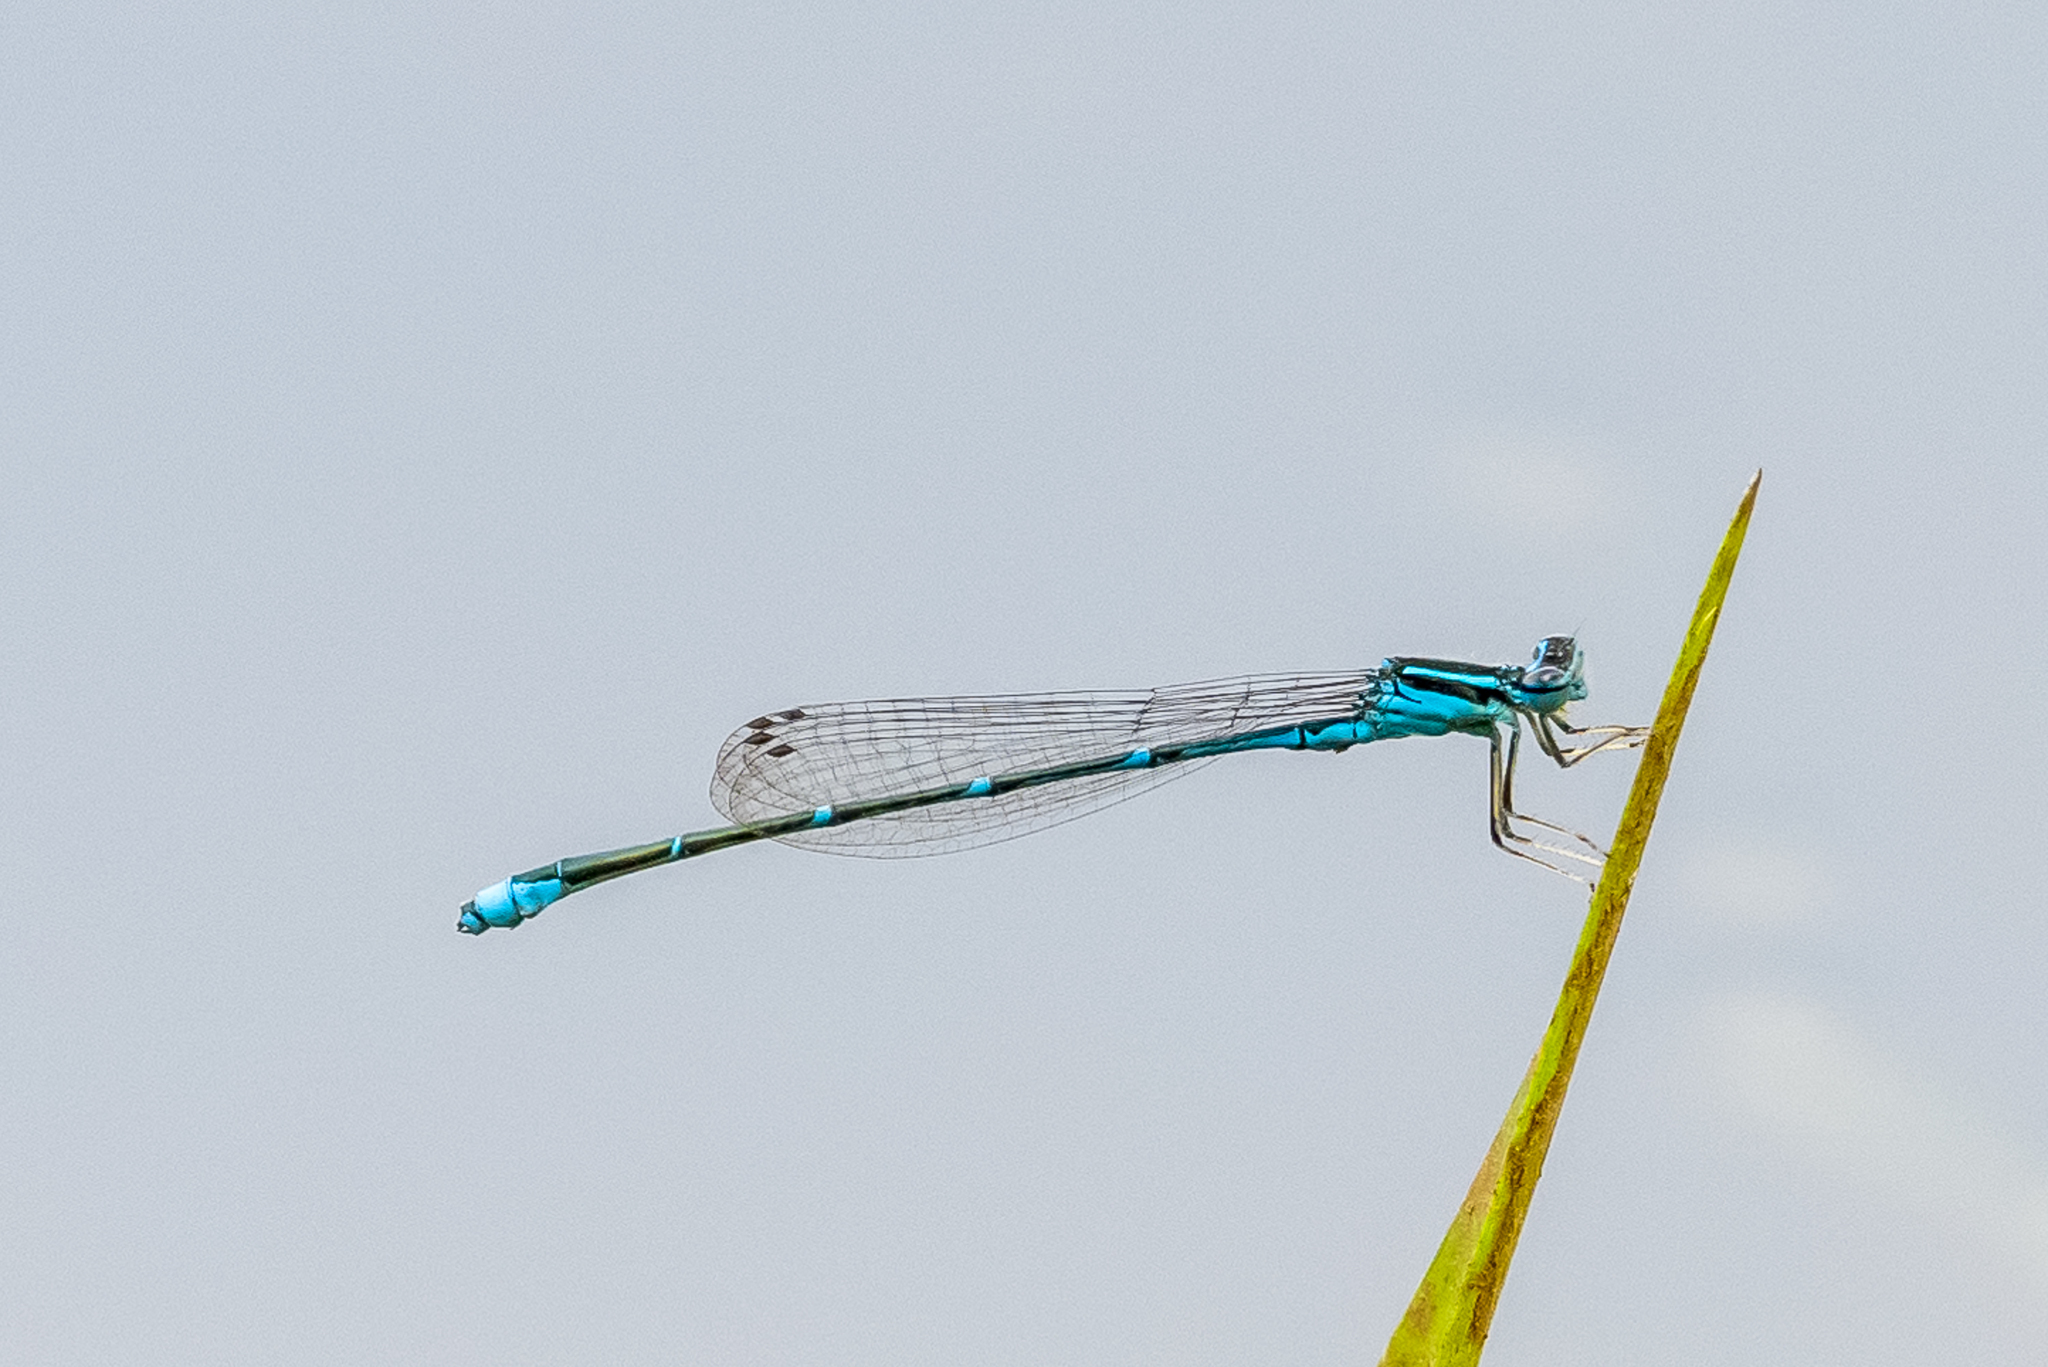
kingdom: Animalia
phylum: Arthropoda
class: Insecta
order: Odonata
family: Coenagrionidae
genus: Enallagma
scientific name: Enallagma exsulans
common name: Stream bluet
